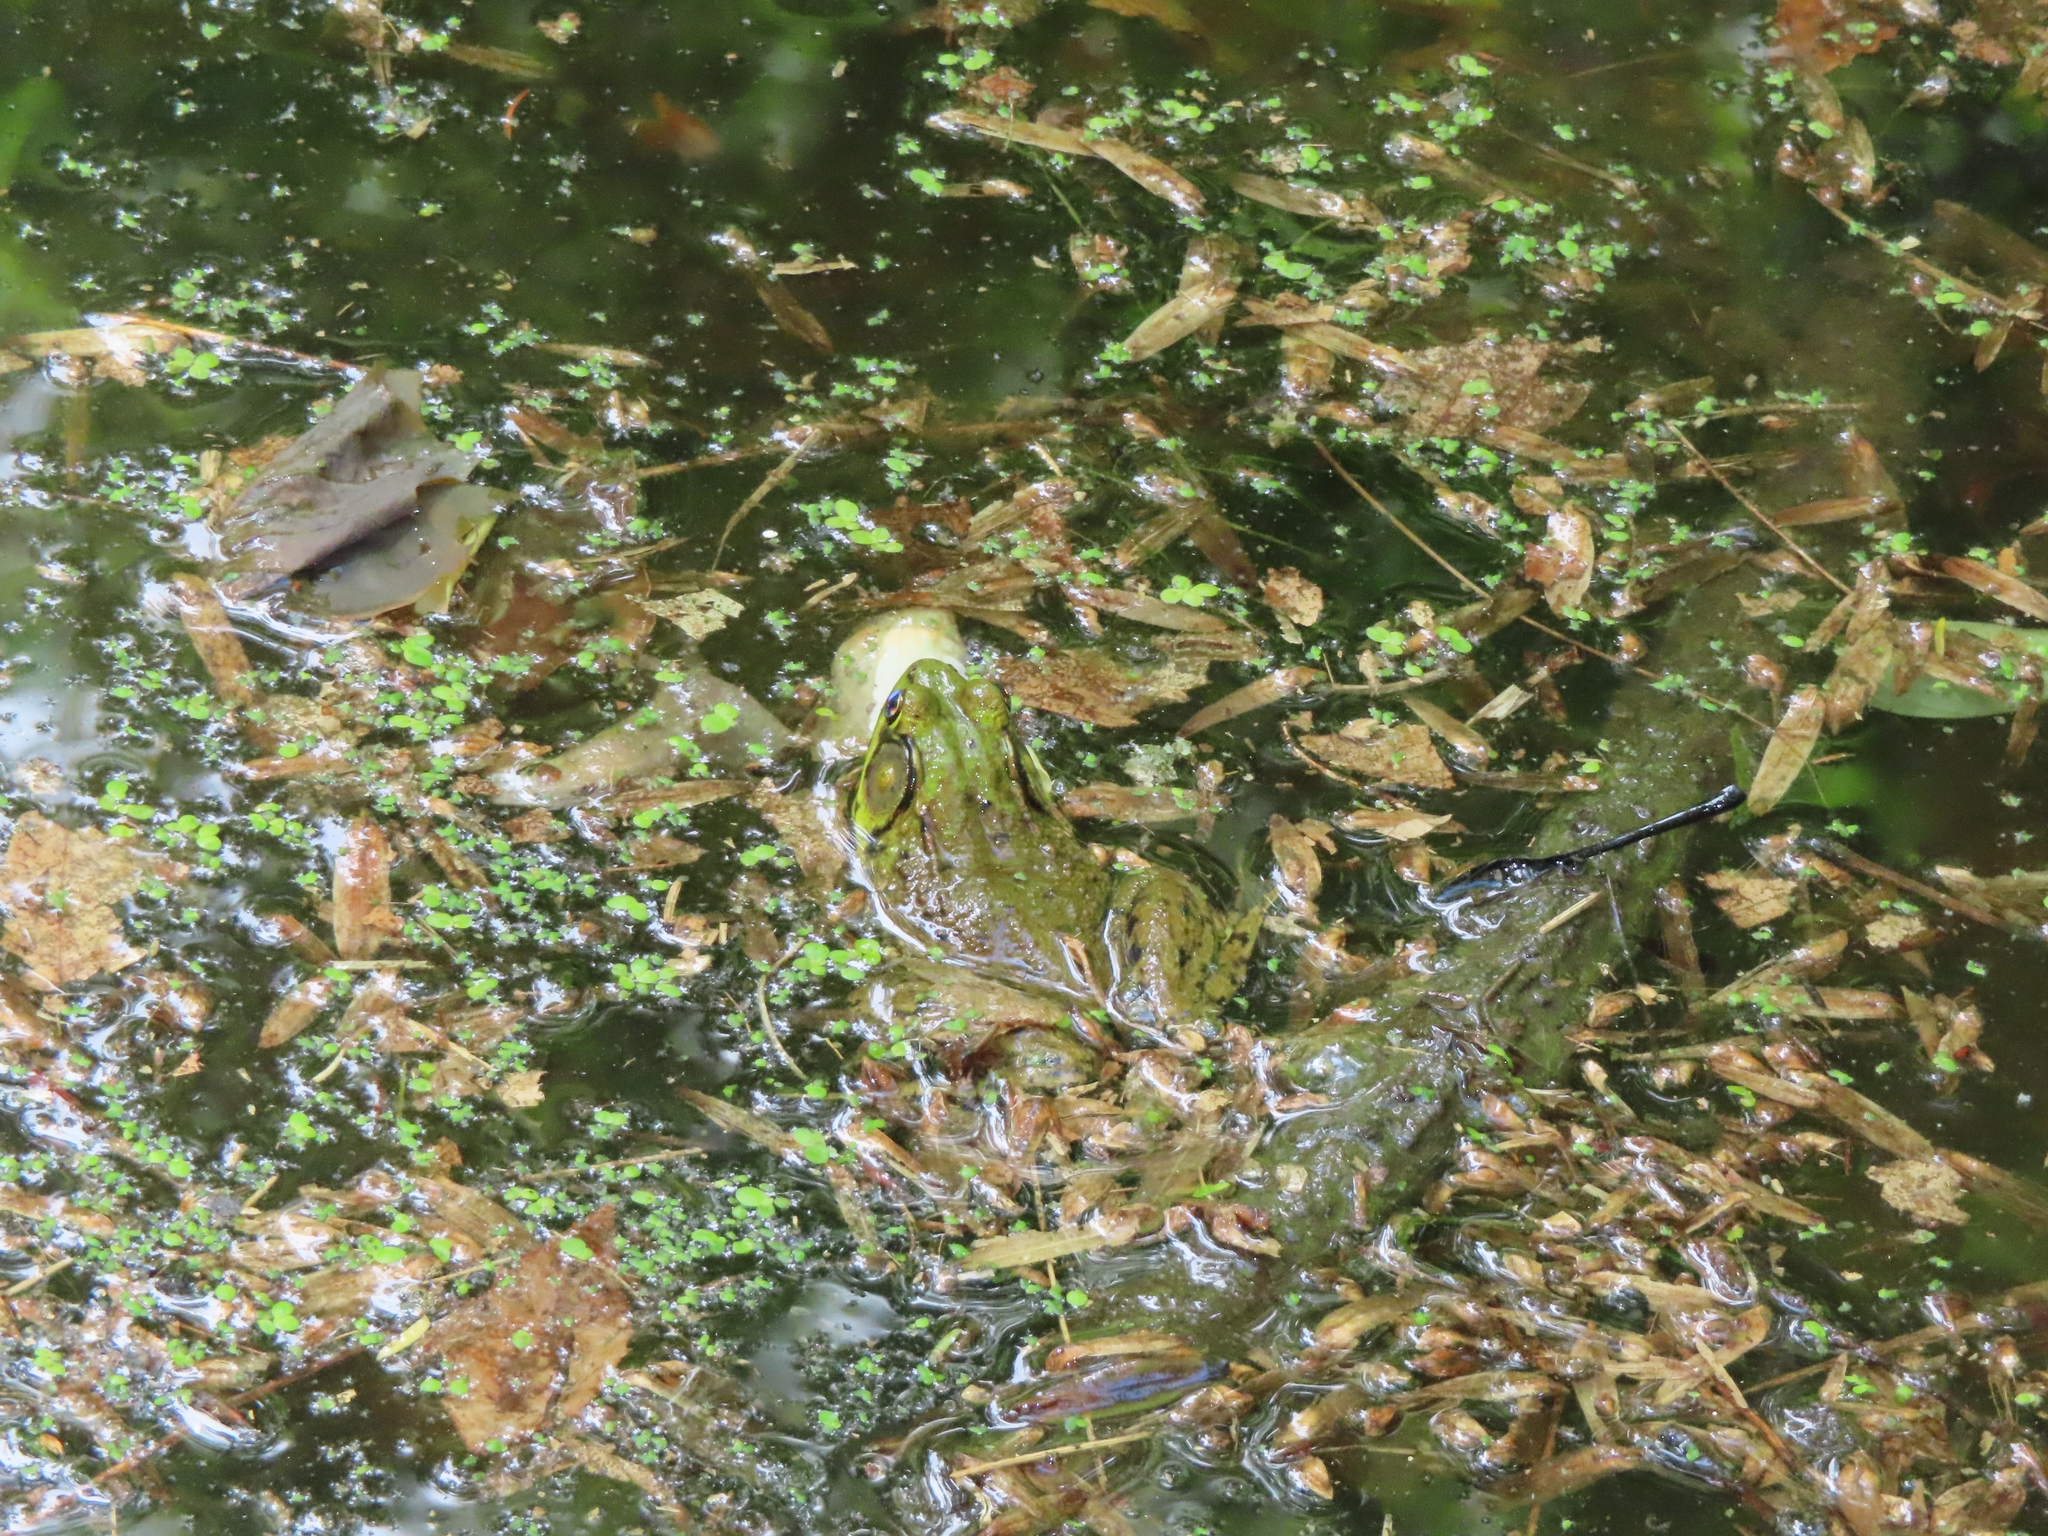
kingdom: Animalia
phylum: Chordata
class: Amphibia
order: Anura
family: Ranidae
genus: Lithobates
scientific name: Lithobates clamitans
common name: Green frog
